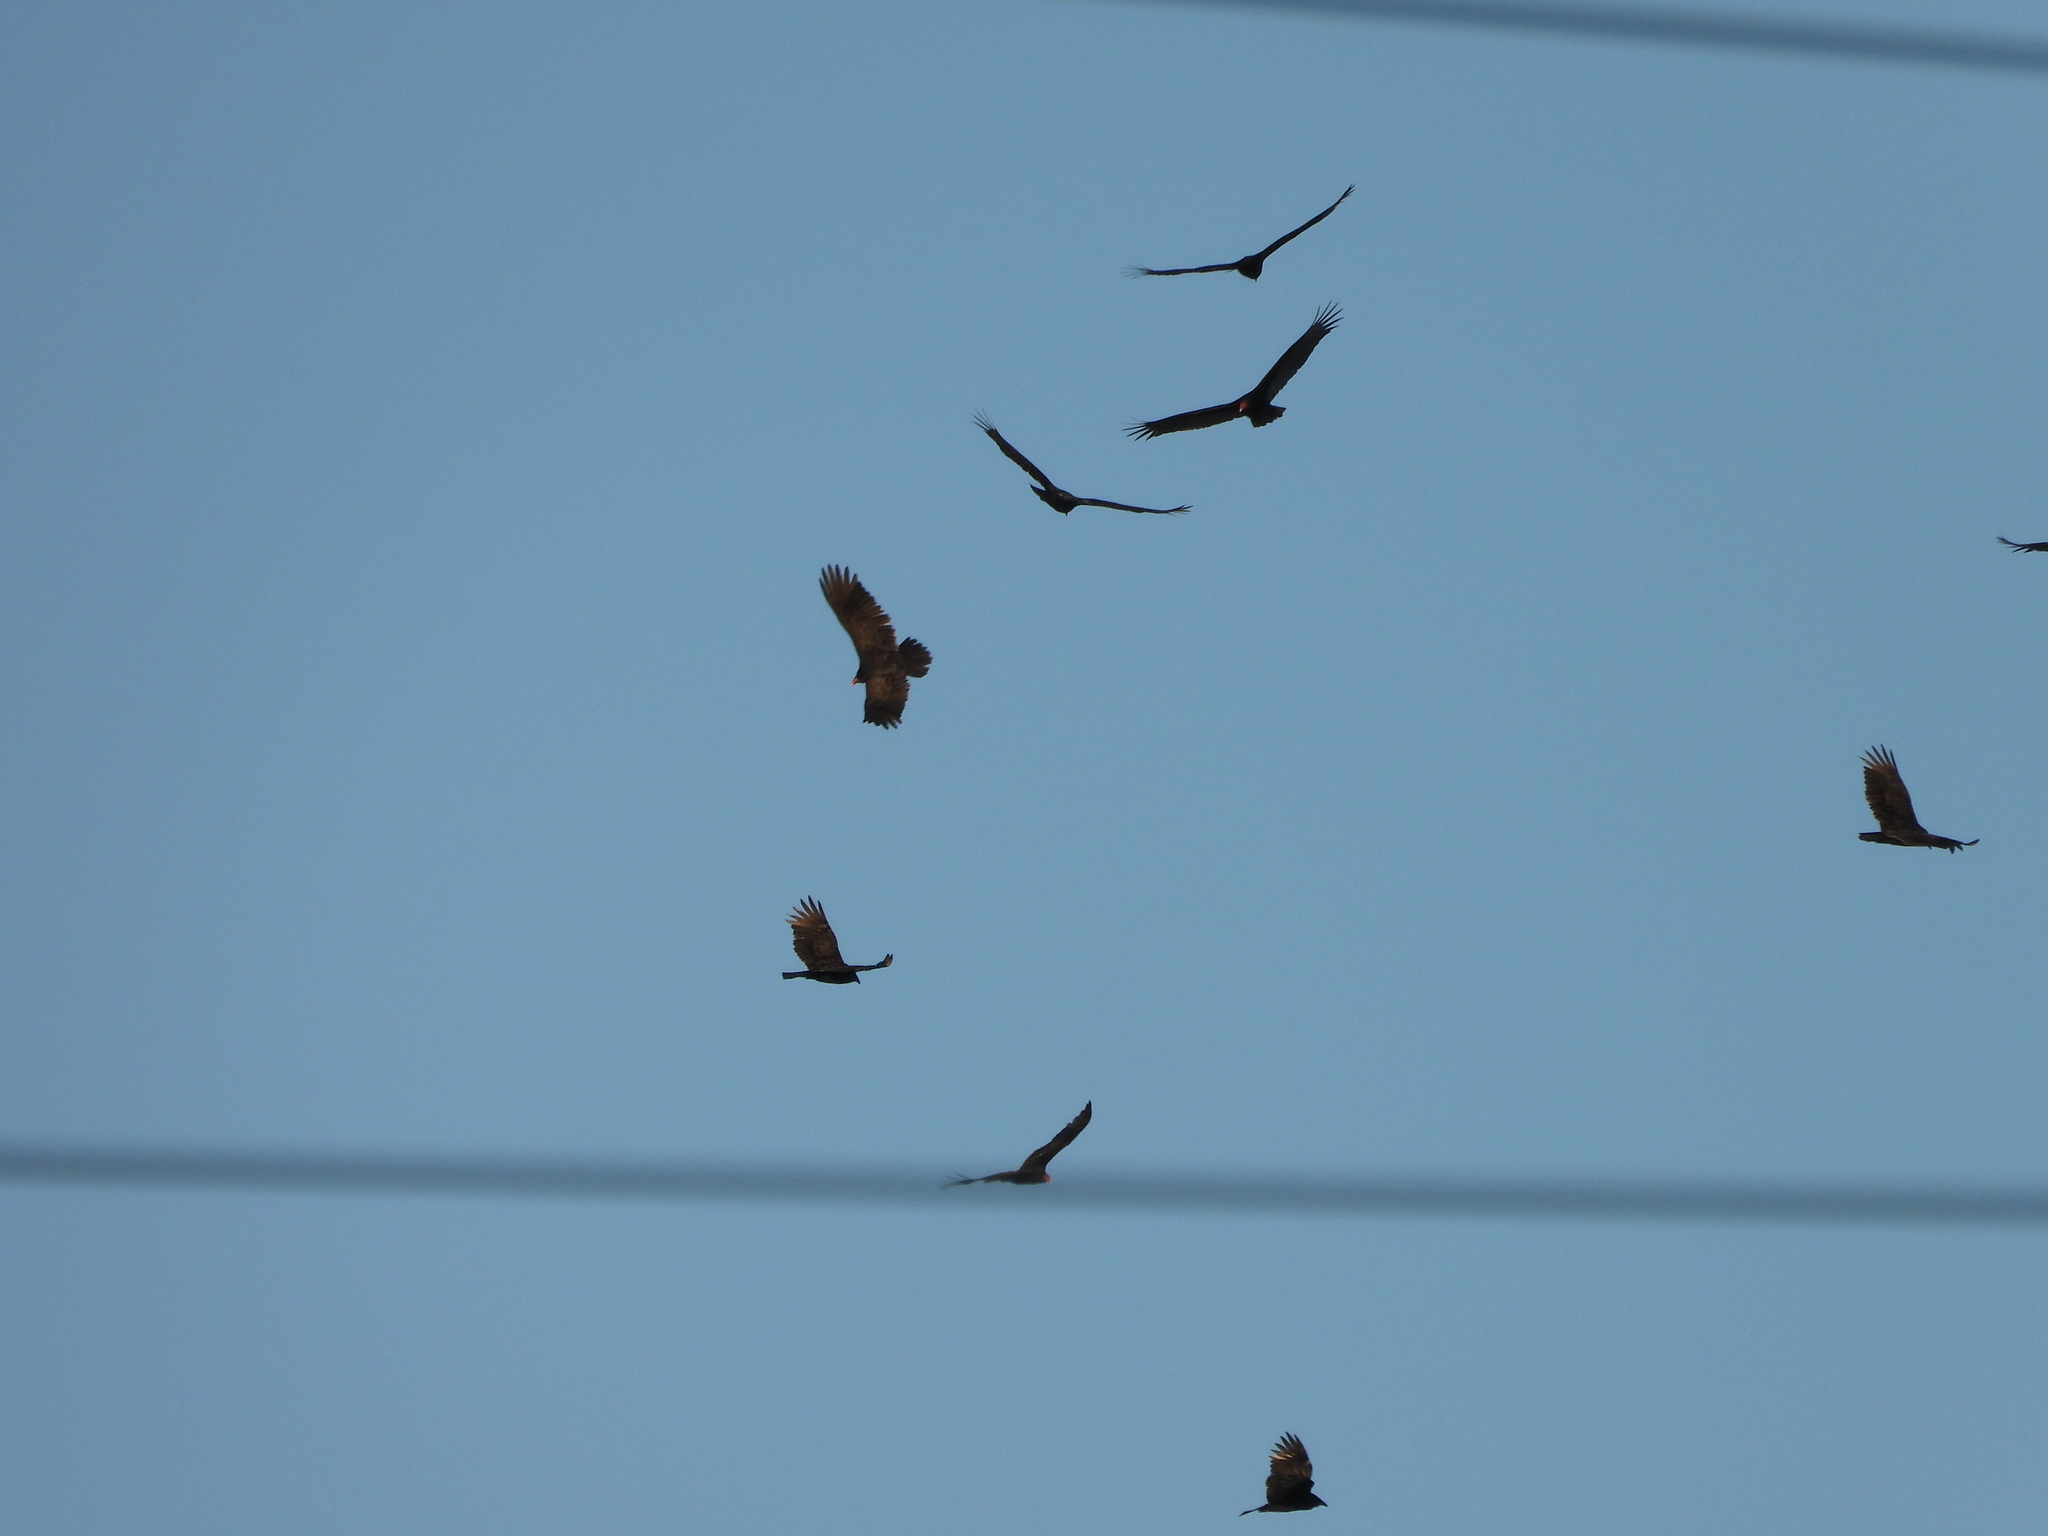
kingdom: Animalia
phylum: Chordata
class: Aves
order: Accipitriformes
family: Cathartidae
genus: Cathartes
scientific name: Cathartes aura
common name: Turkey vulture
